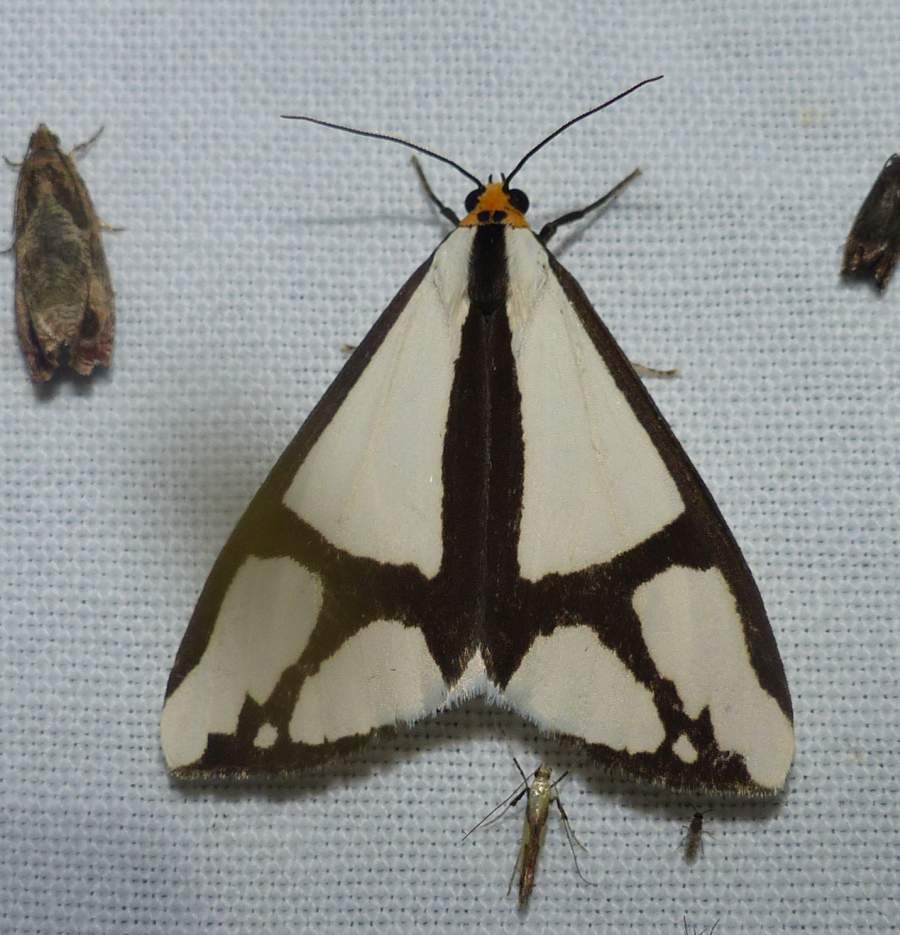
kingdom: Animalia
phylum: Arthropoda
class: Insecta
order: Lepidoptera
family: Erebidae
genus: Haploa
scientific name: Haploa contigua
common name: Neighbor moth
